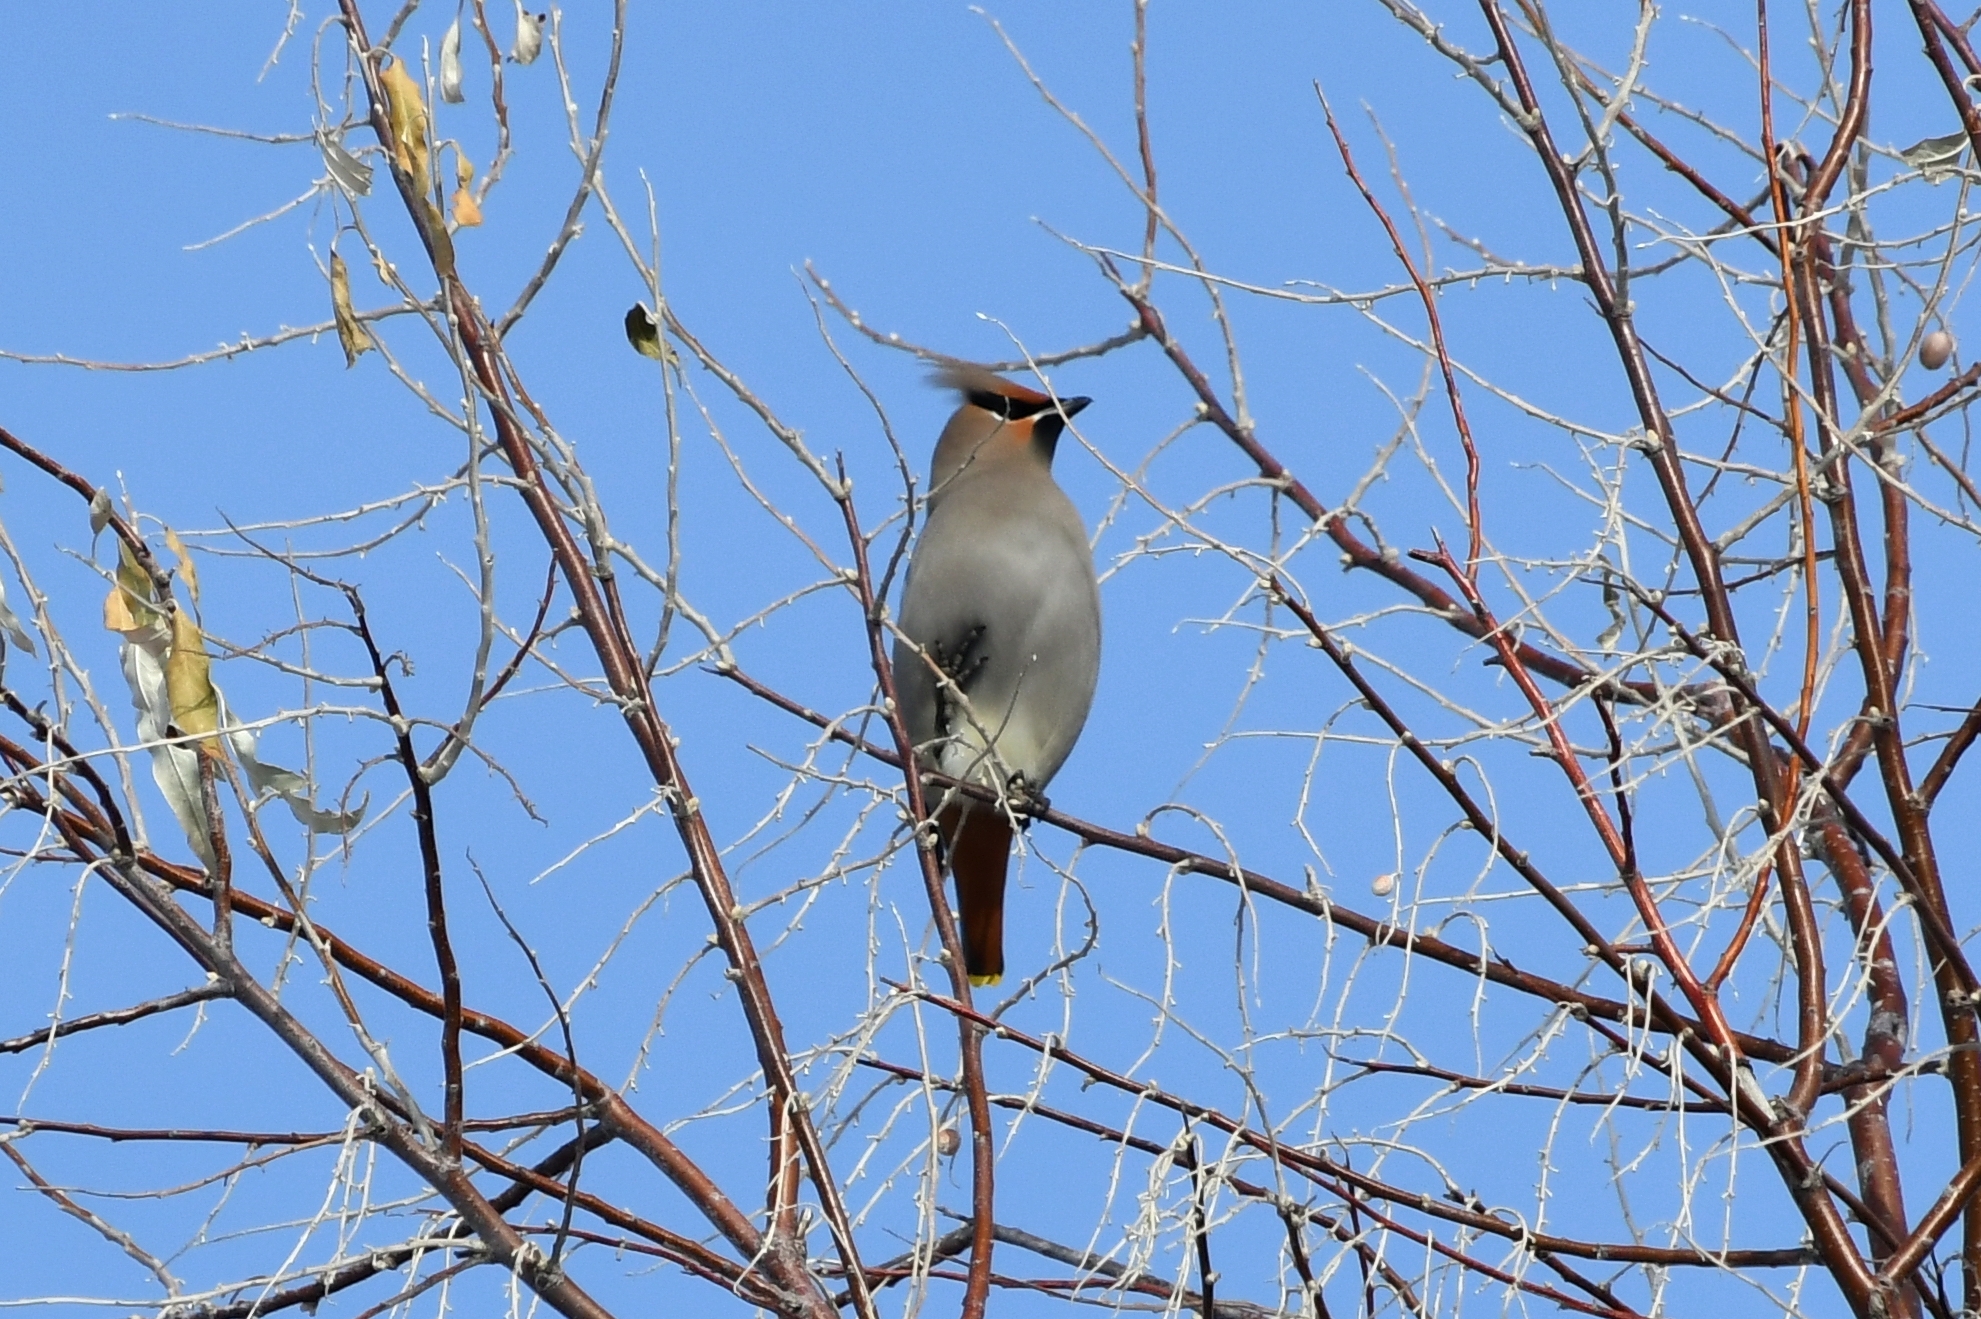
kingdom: Animalia
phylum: Chordata
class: Aves
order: Passeriformes
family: Bombycillidae
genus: Bombycilla
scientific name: Bombycilla garrulus
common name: Bohemian waxwing
